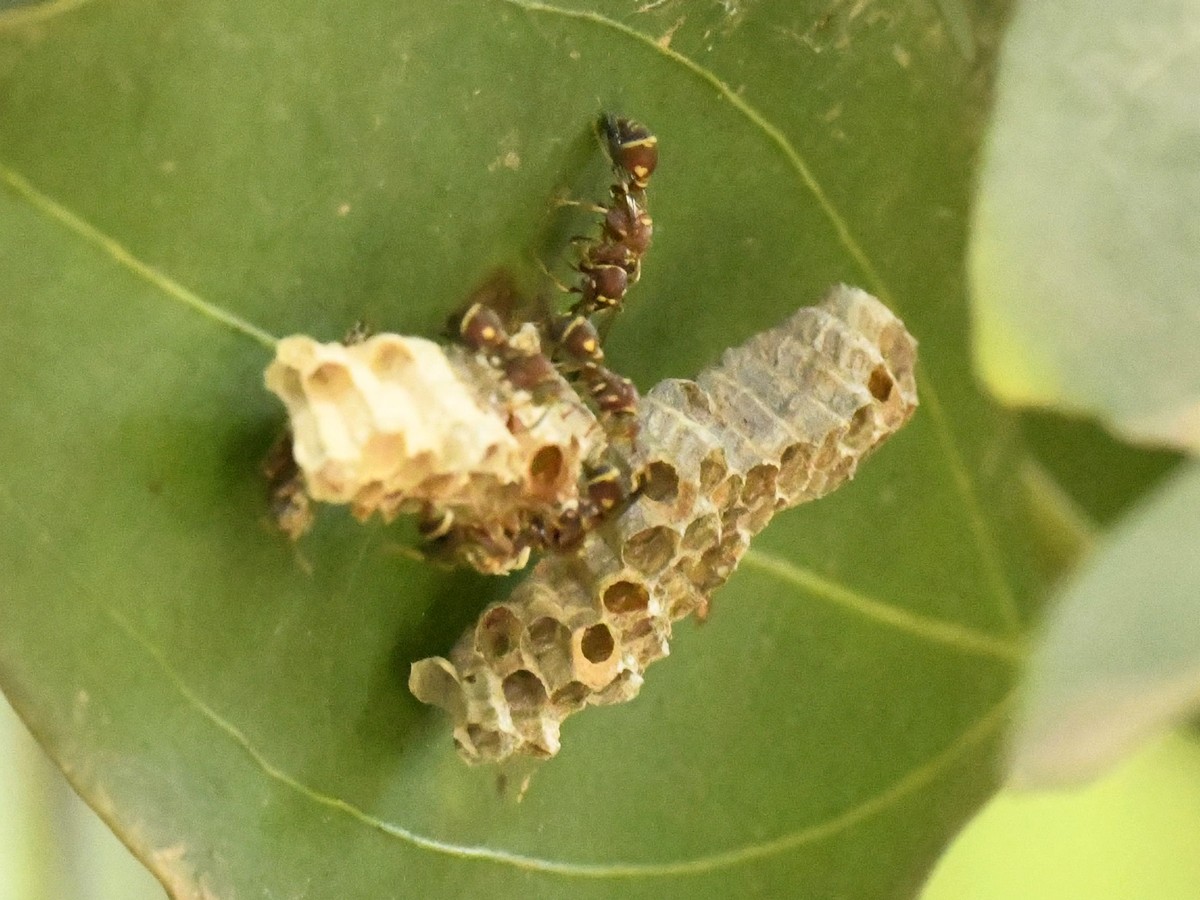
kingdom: Animalia
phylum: Arthropoda
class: Insecta
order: Hymenoptera
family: Vespidae
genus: Ropalidia
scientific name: Ropalidia cyathiformis
